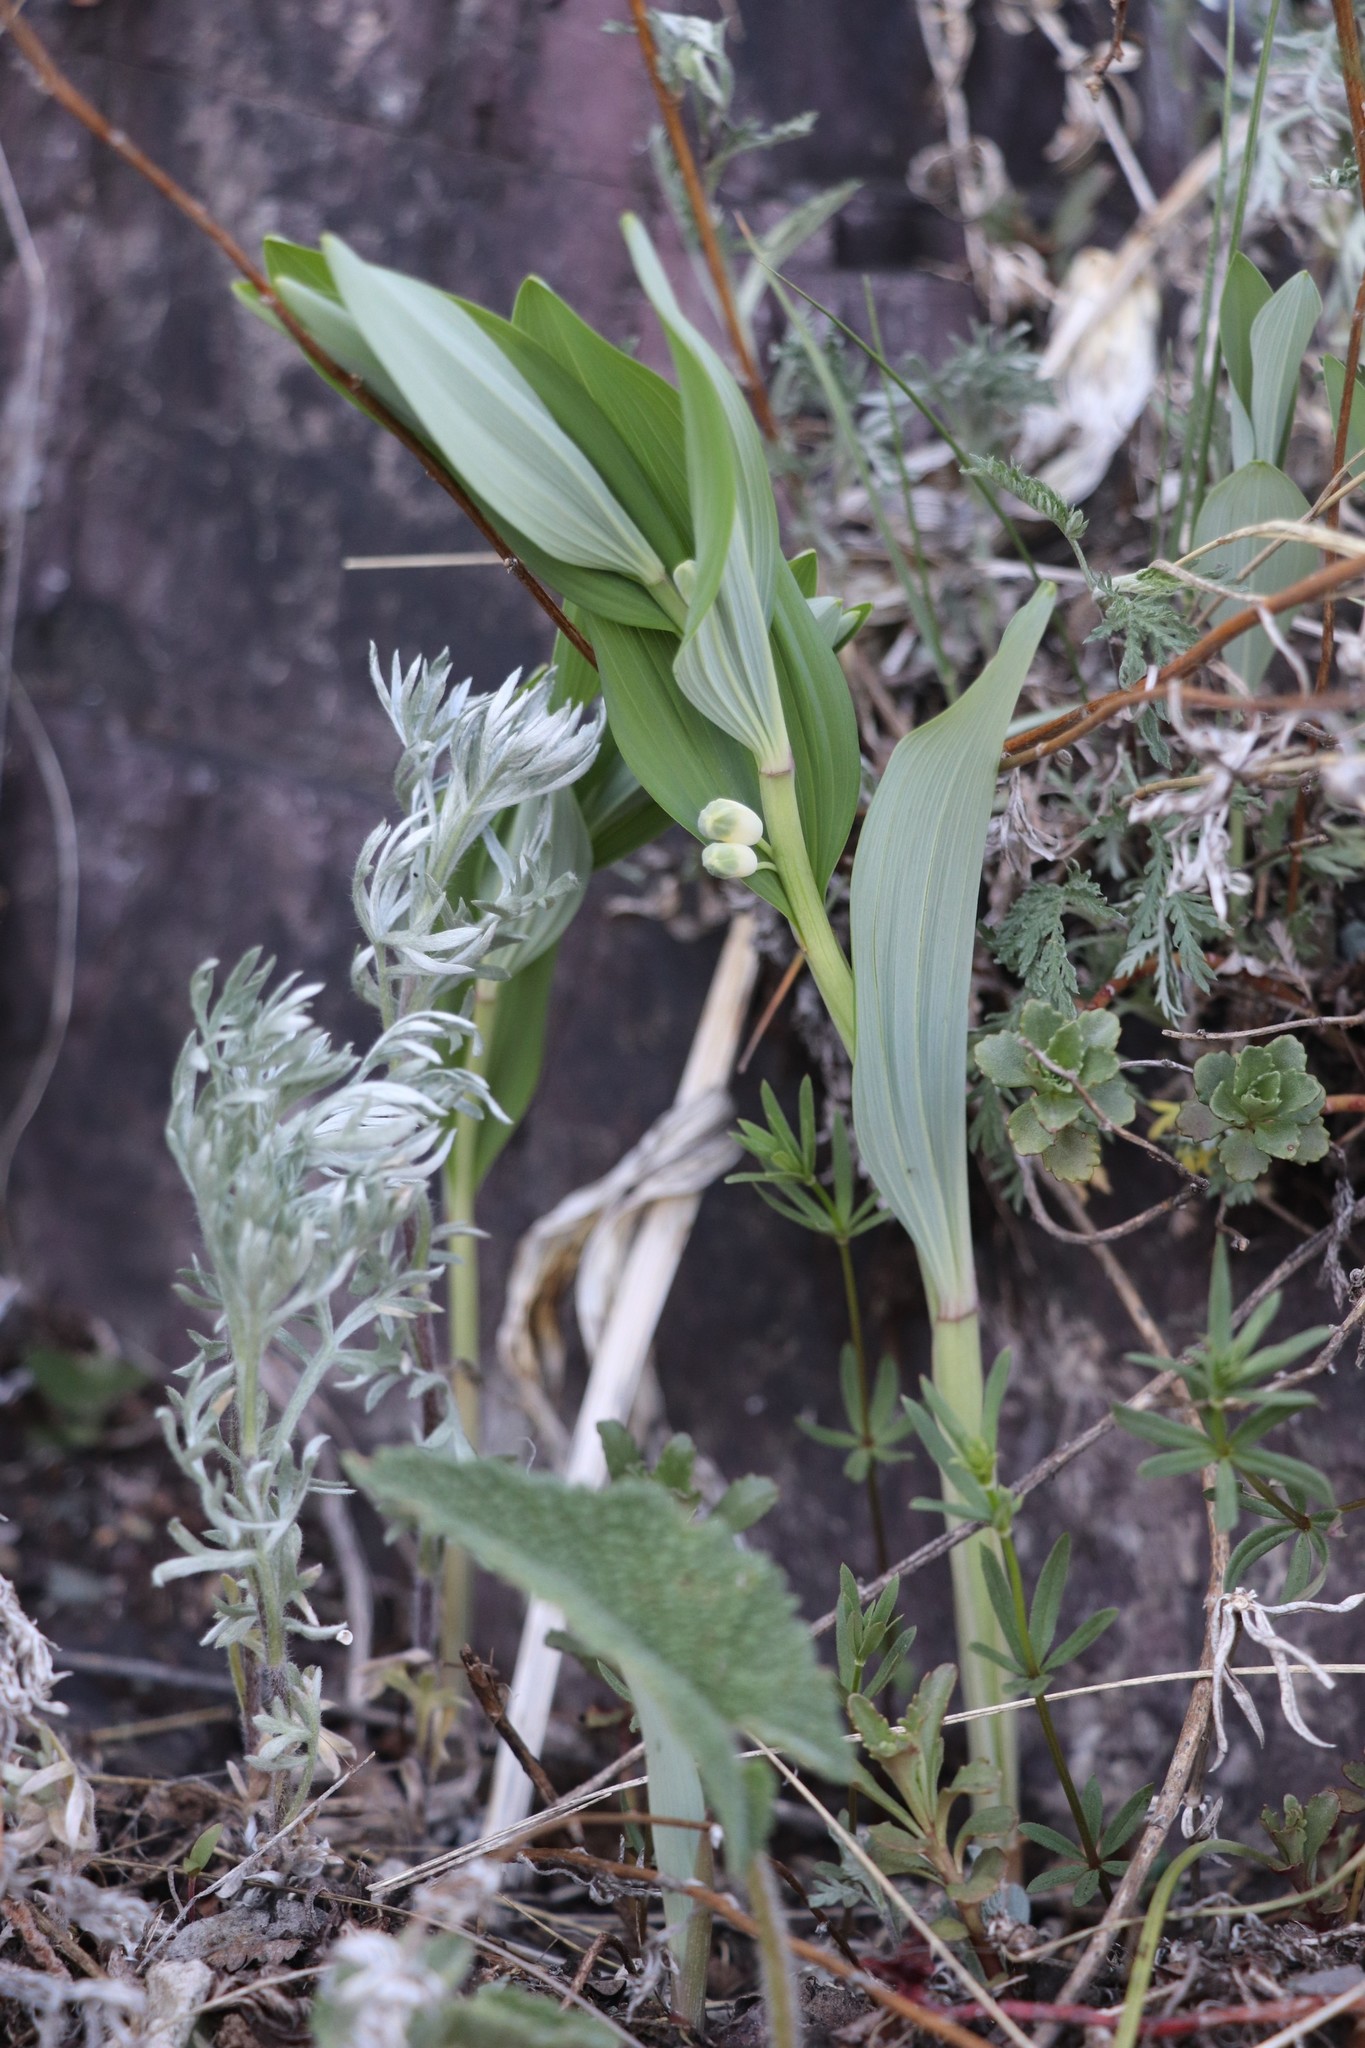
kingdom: Plantae
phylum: Tracheophyta
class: Liliopsida
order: Asparagales
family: Asparagaceae
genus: Polygonatum
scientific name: Polygonatum odoratum
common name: Angular solomon's-seal
